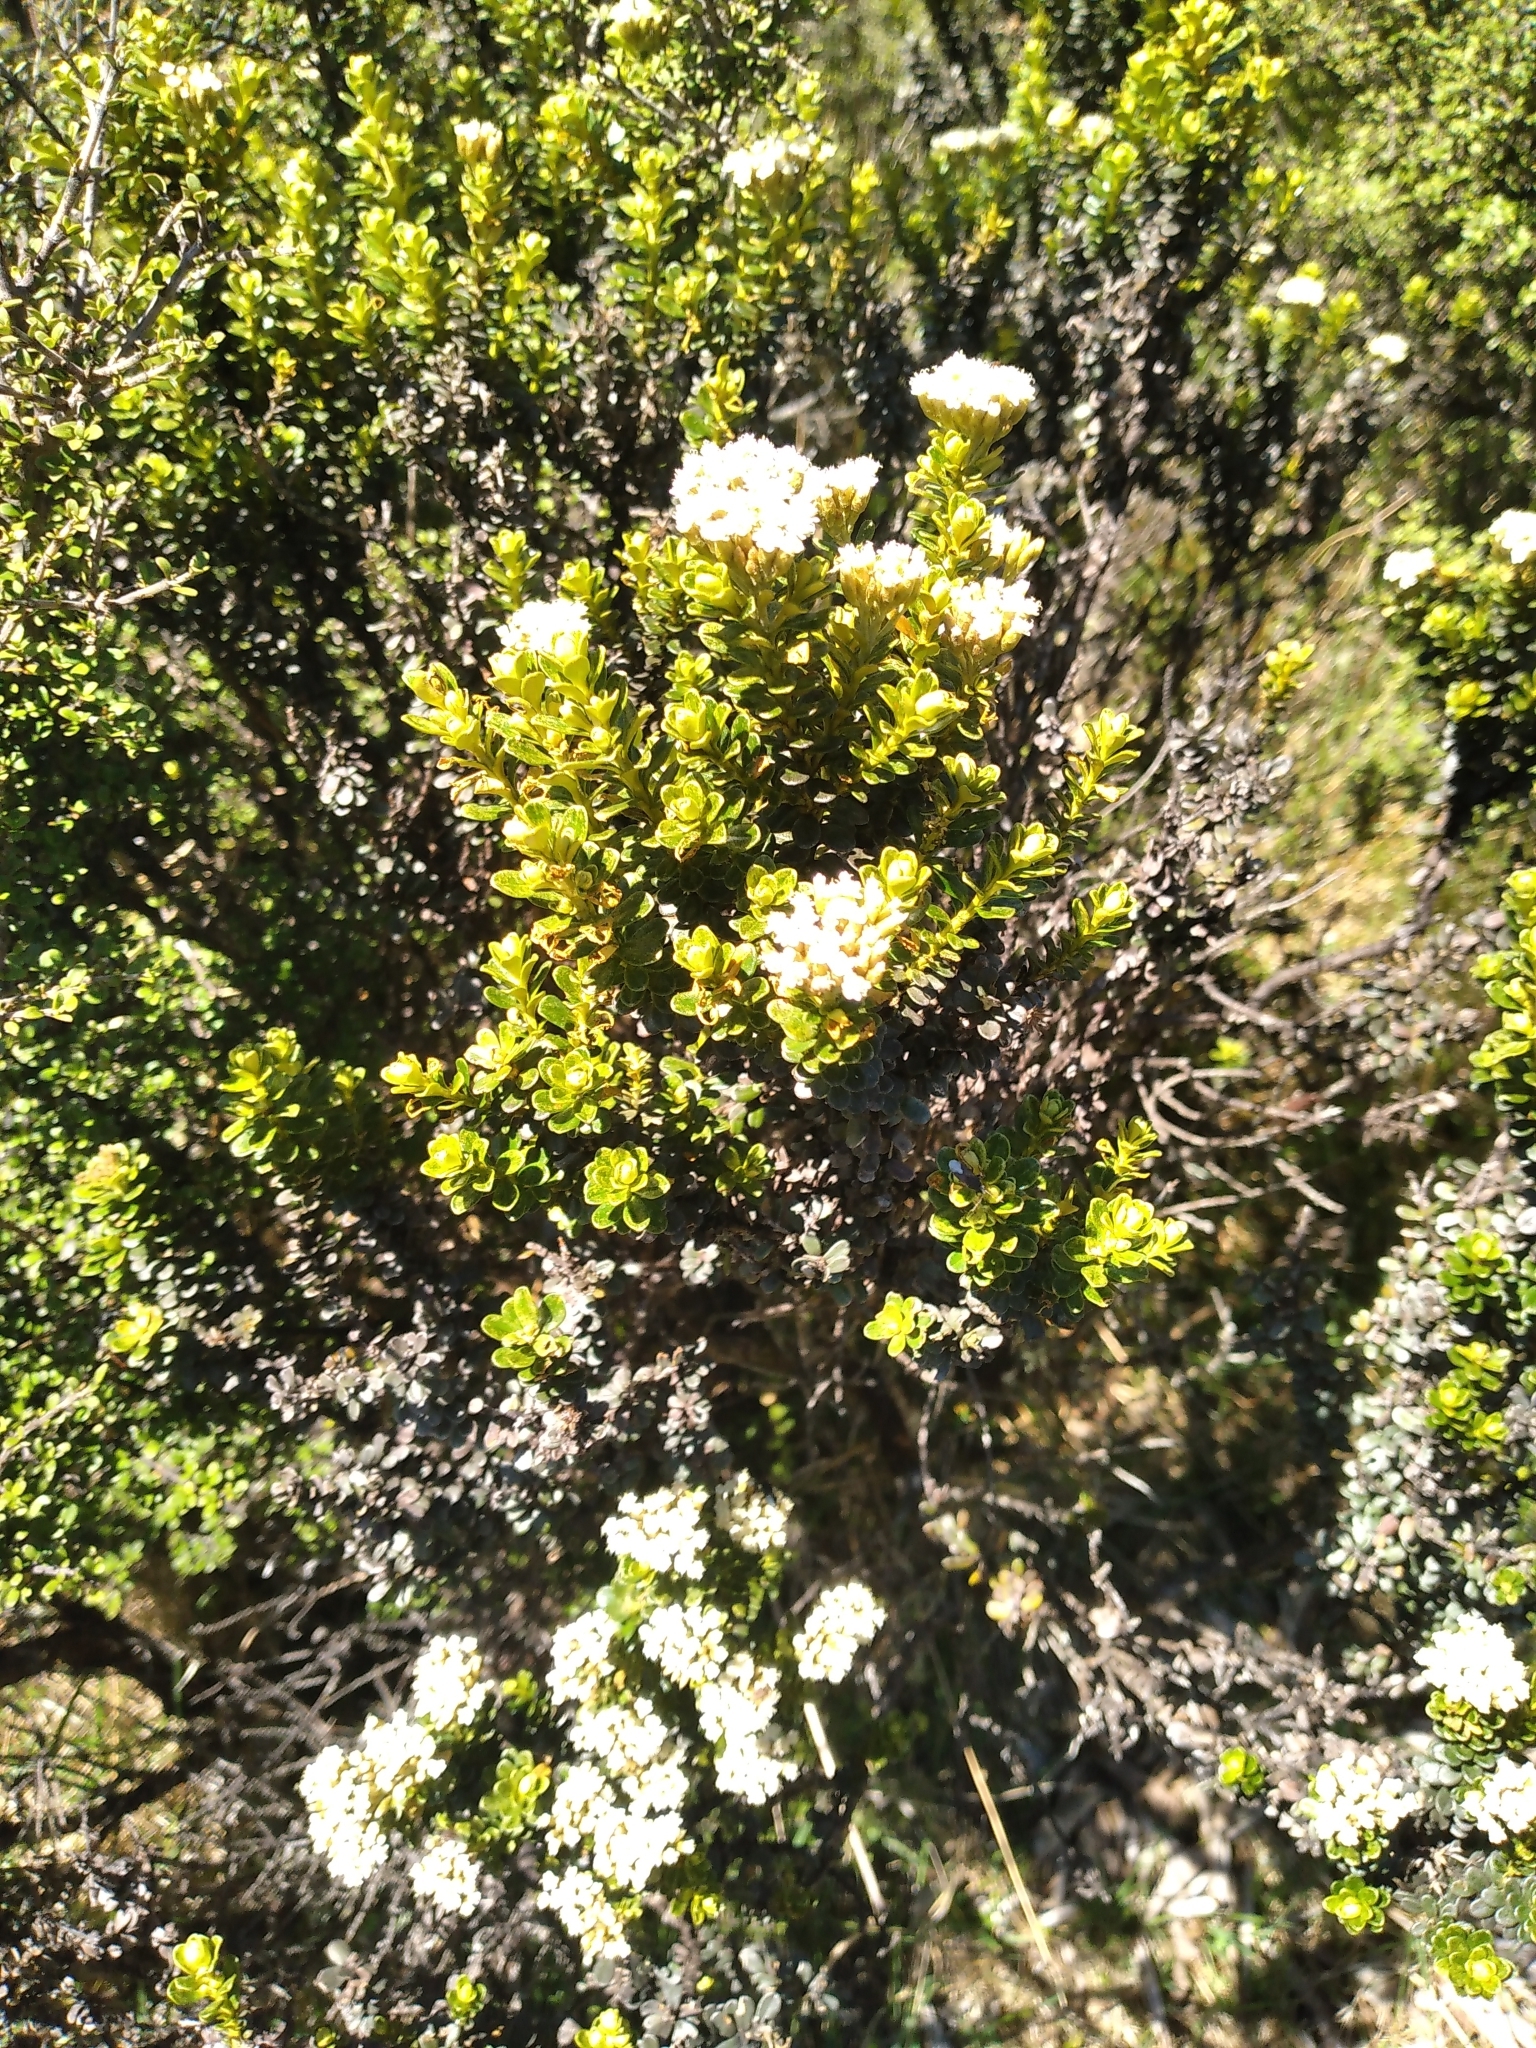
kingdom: Plantae
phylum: Tracheophyta
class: Magnoliopsida
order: Asterales
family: Asteraceae
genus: Ozothamnus
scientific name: Ozothamnus leptophyllus
